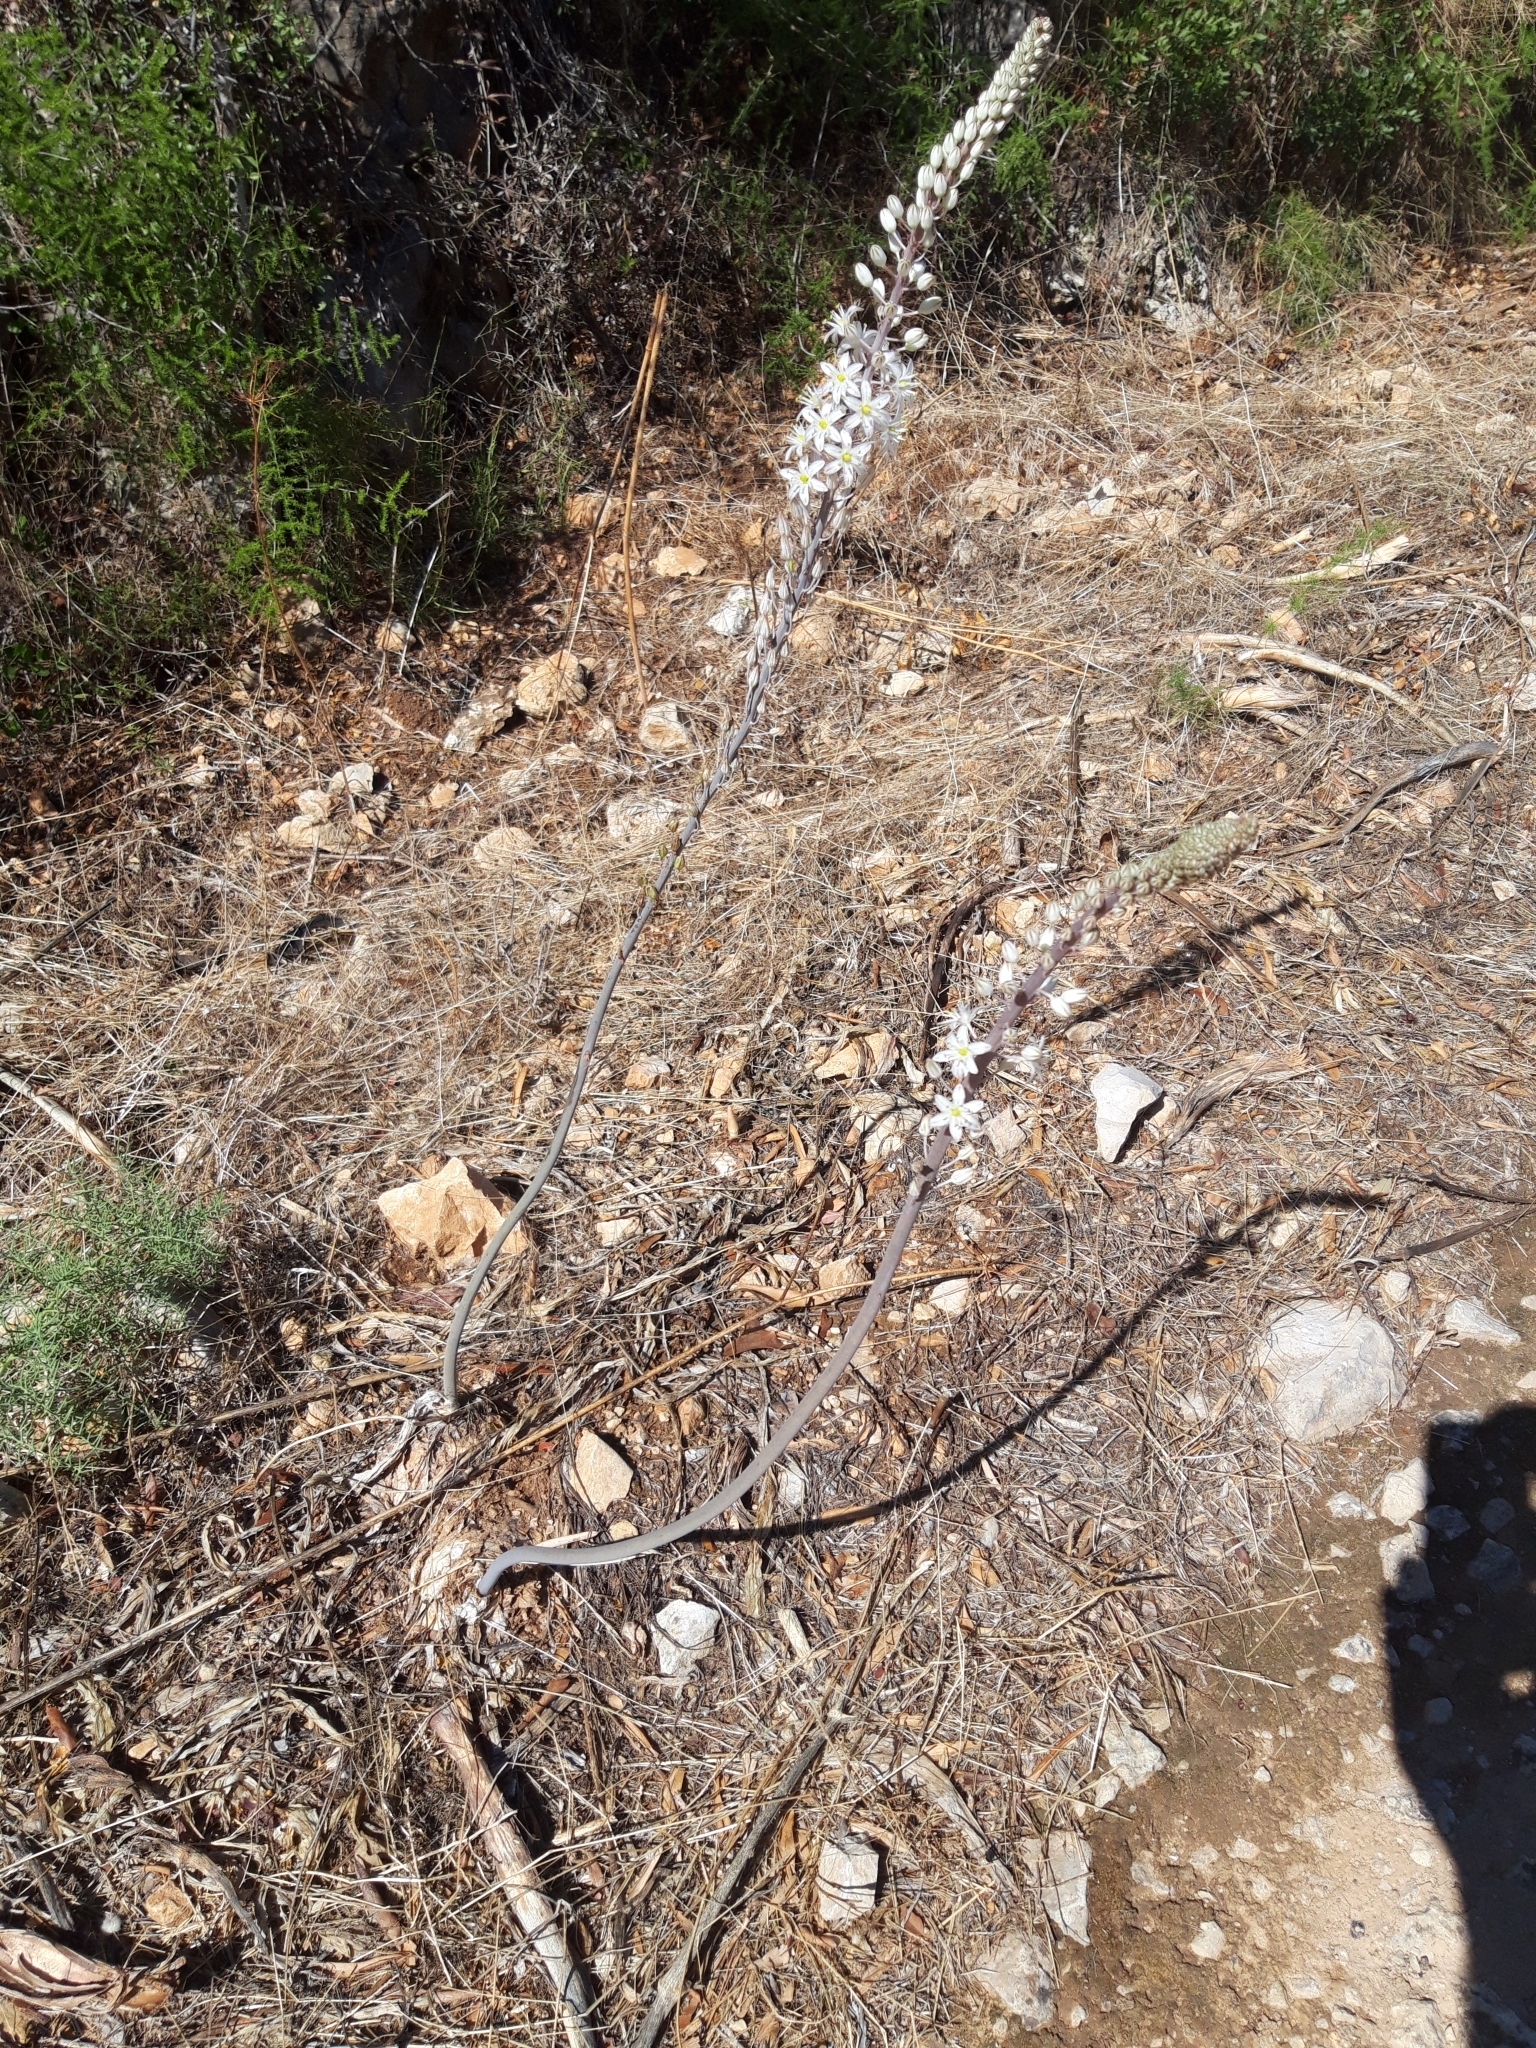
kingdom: Plantae
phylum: Tracheophyta
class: Liliopsida
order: Asparagales
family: Asparagaceae
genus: Drimia
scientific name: Drimia maritima
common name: Maritime squill
